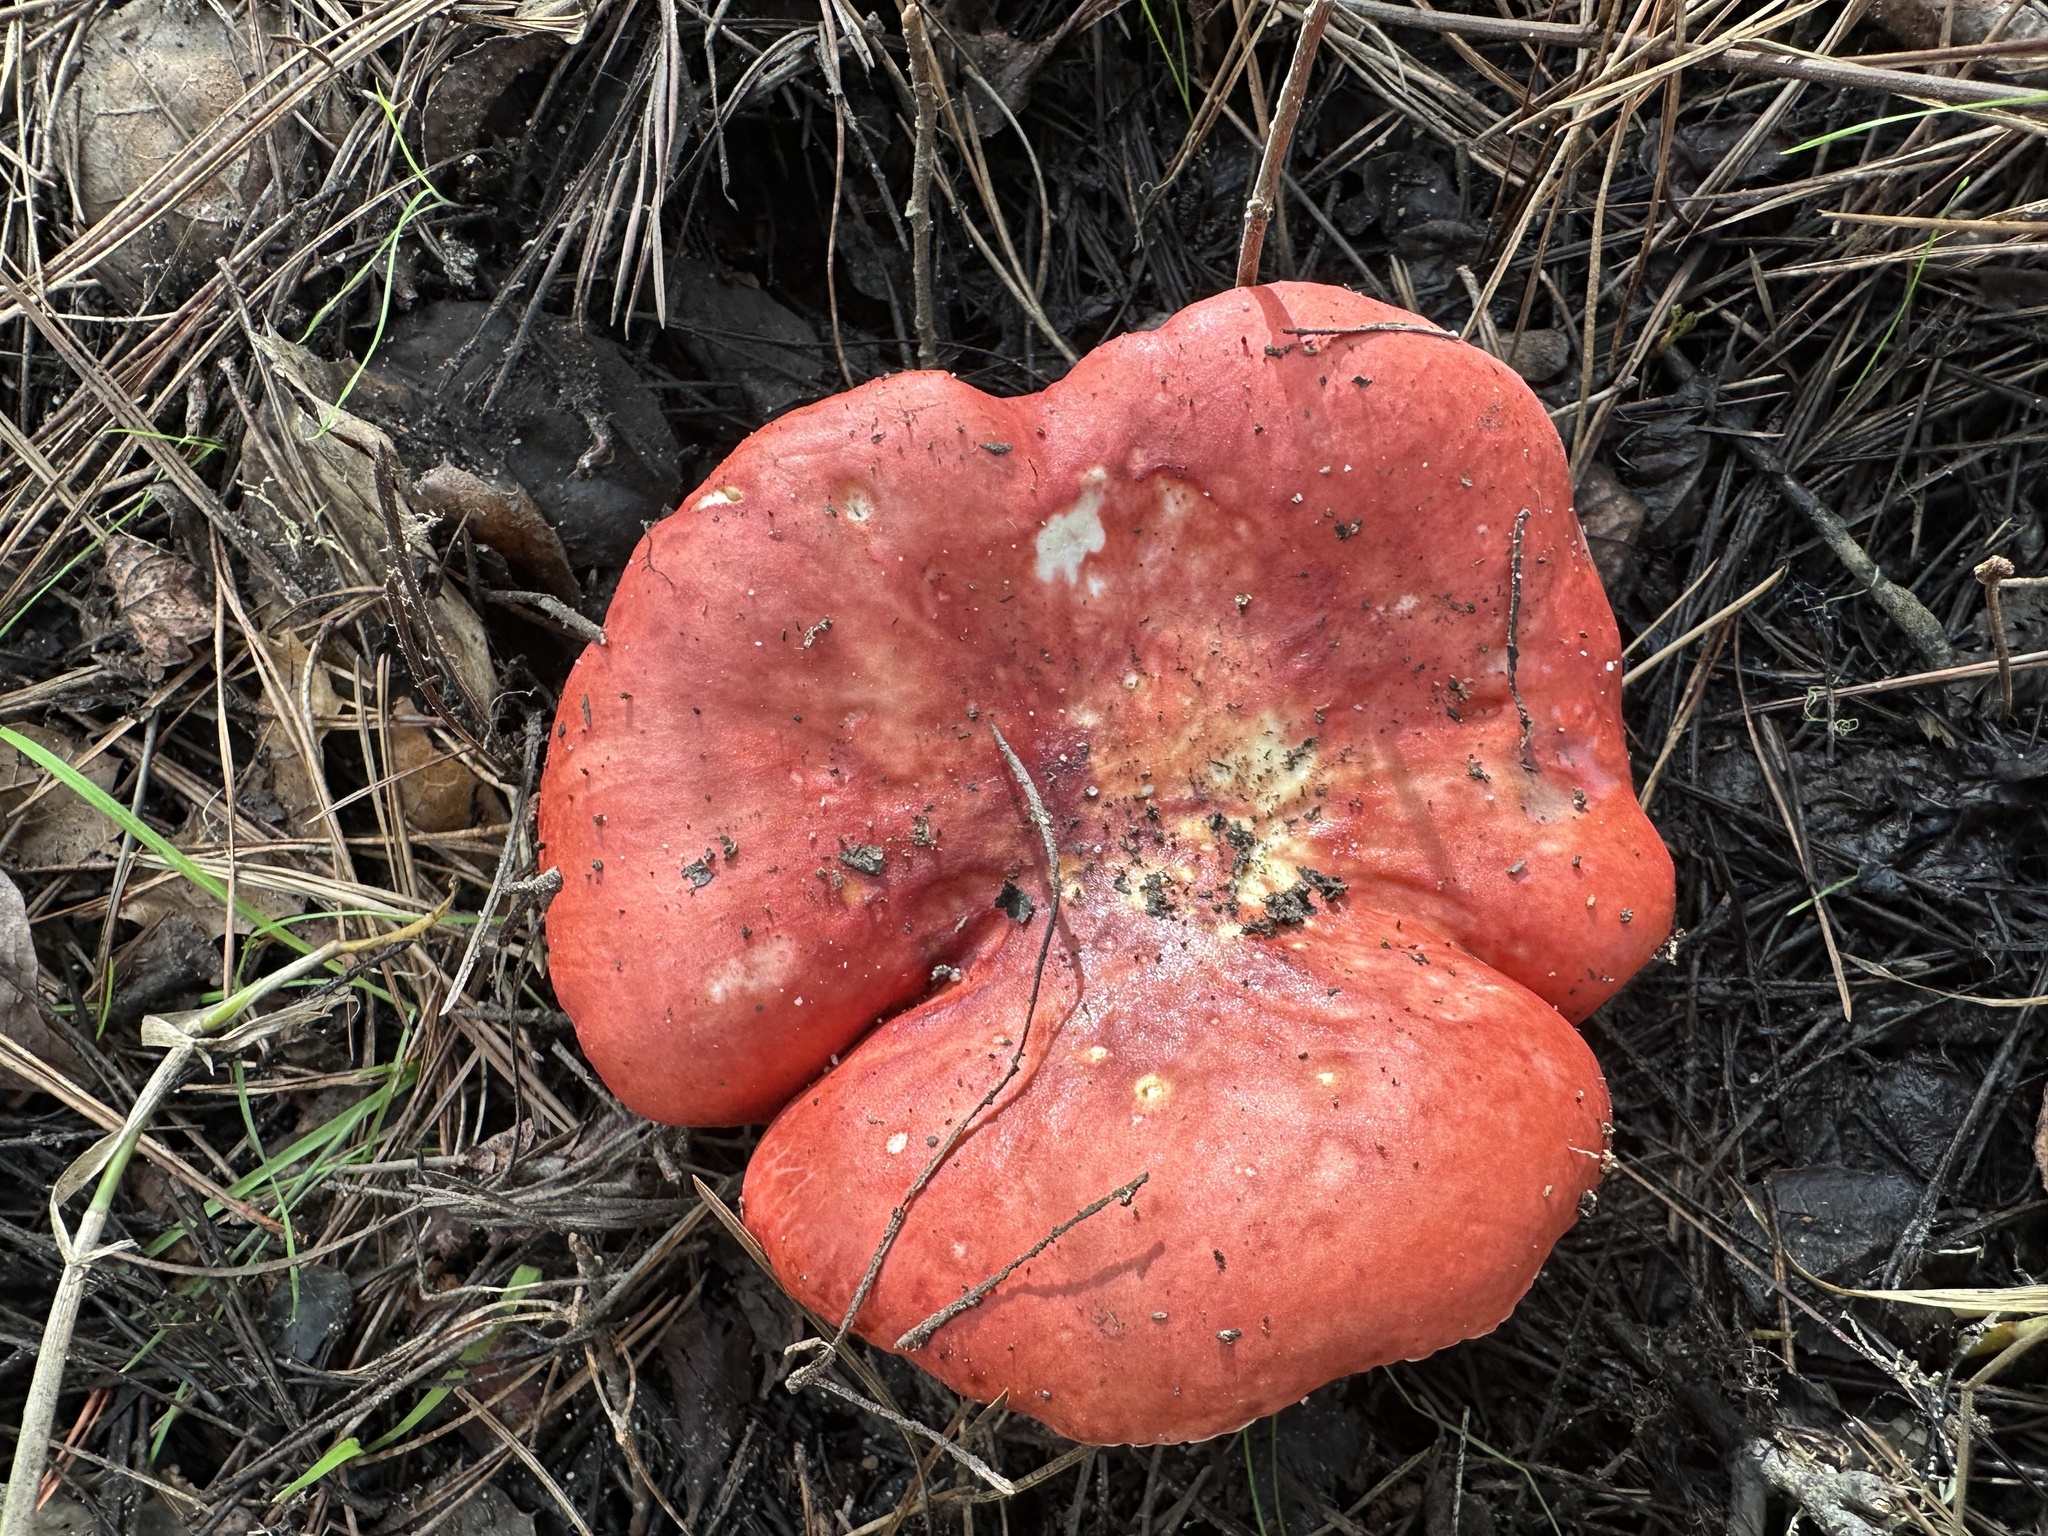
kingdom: Fungi
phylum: Basidiomycota
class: Agaricomycetes
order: Russulales
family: Russulaceae
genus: Russula
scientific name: Russula rhodocephala
